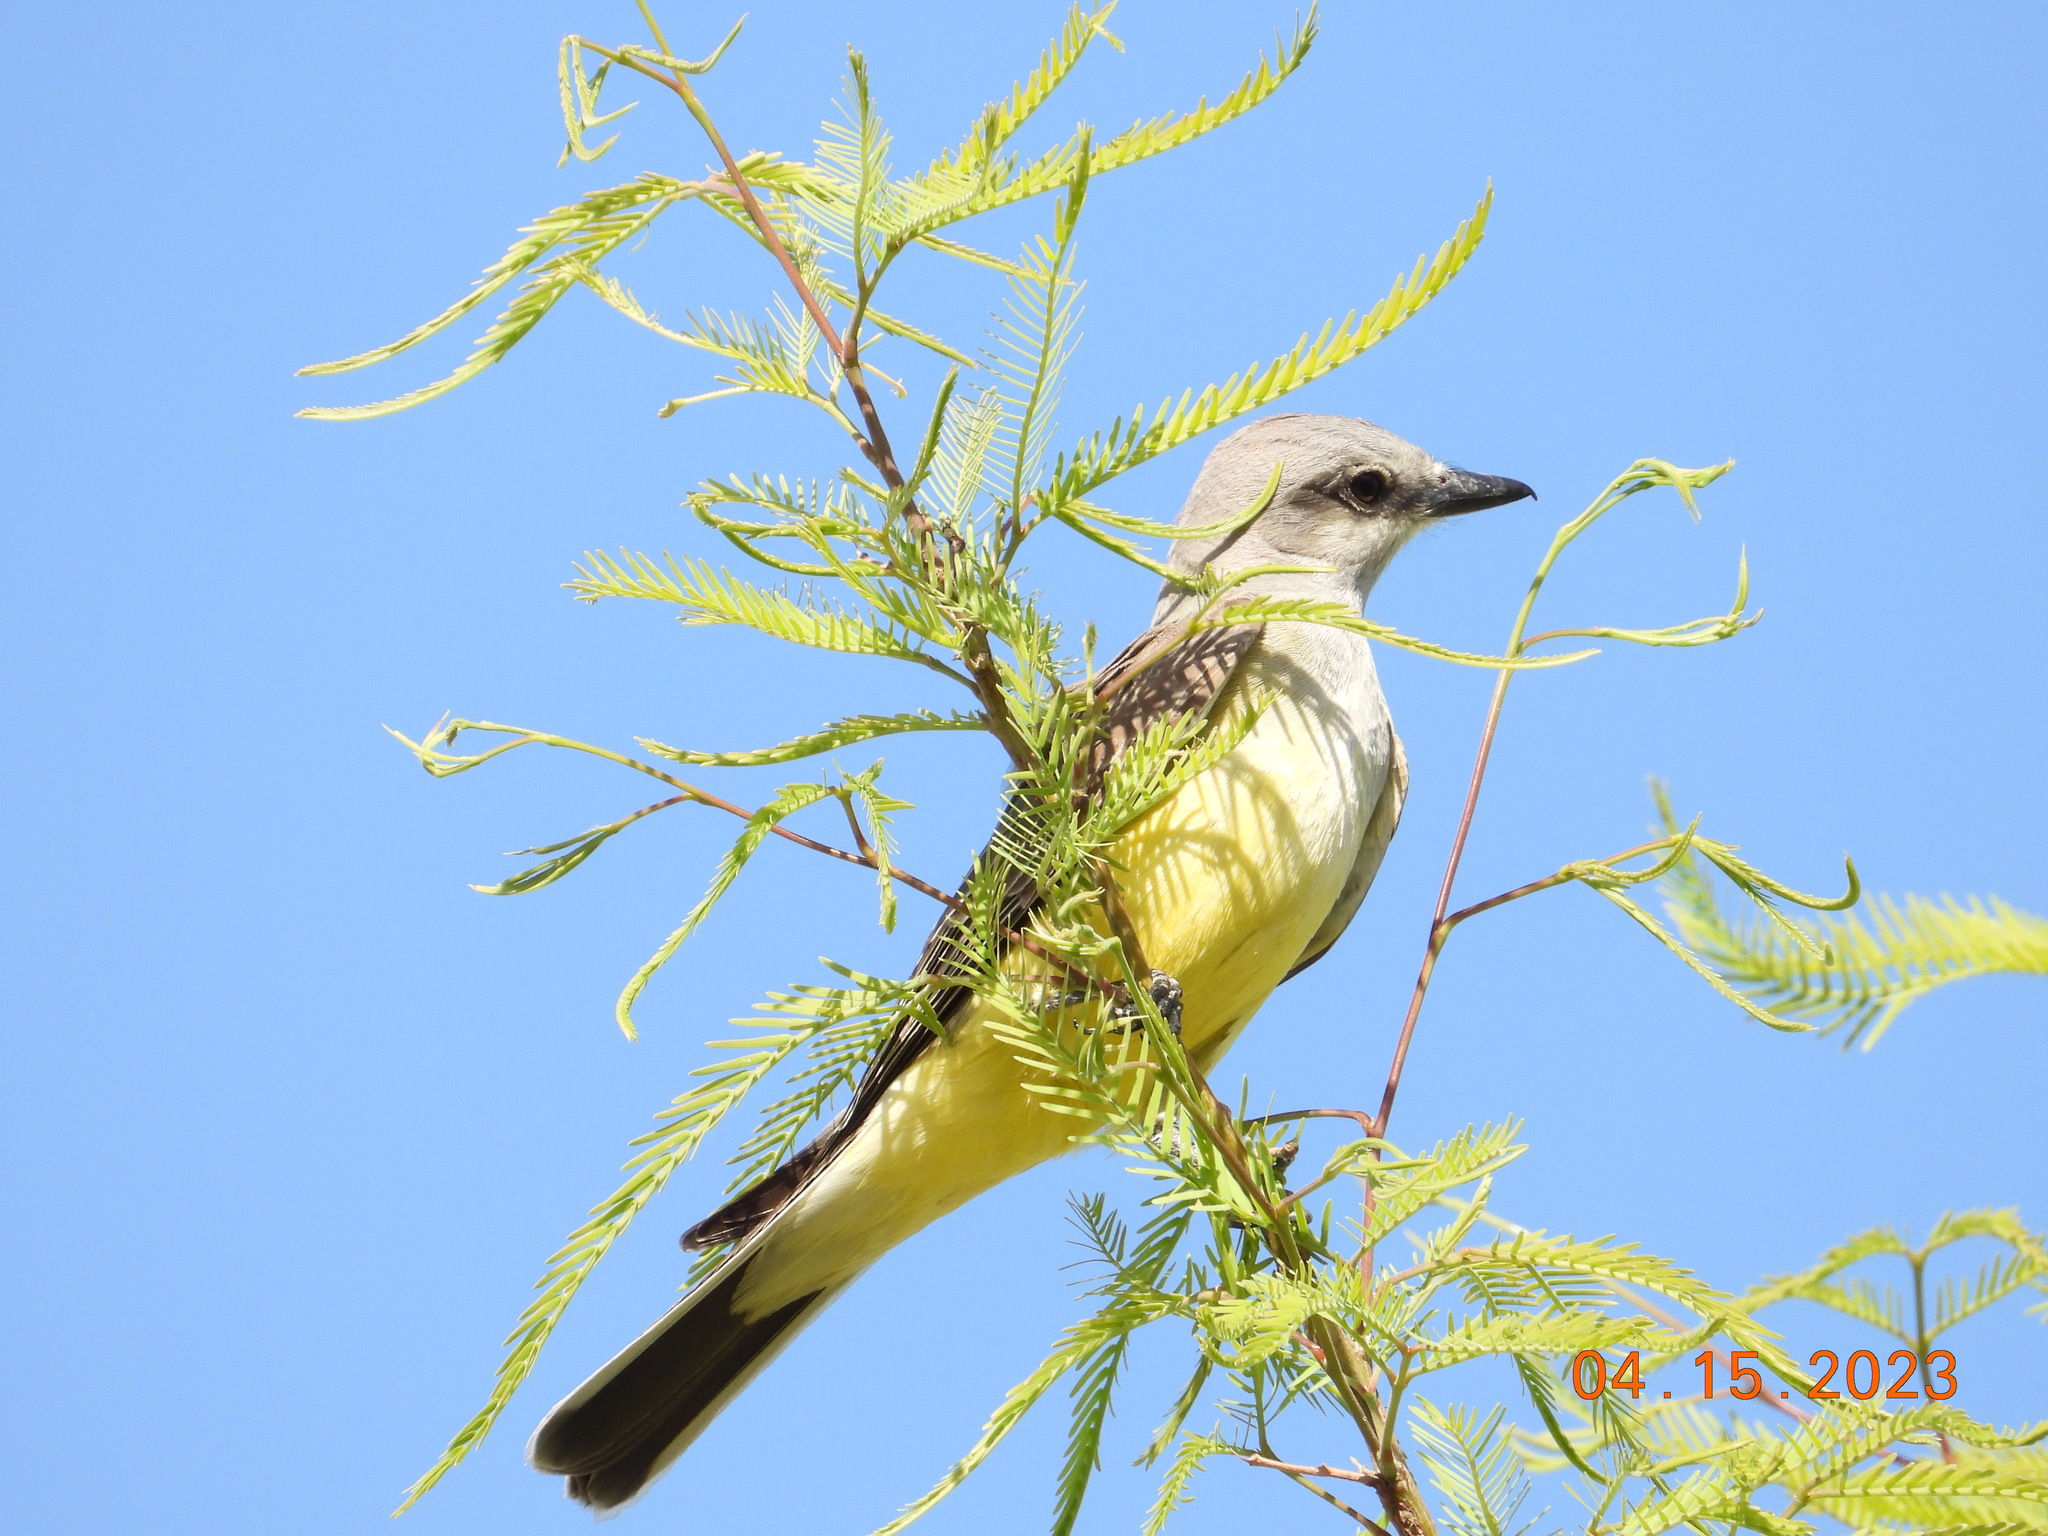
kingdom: Animalia
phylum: Chordata
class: Aves
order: Passeriformes
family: Tyrannidae
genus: Tyrannus
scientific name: Tyrannus verticalis
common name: Western kingbird
